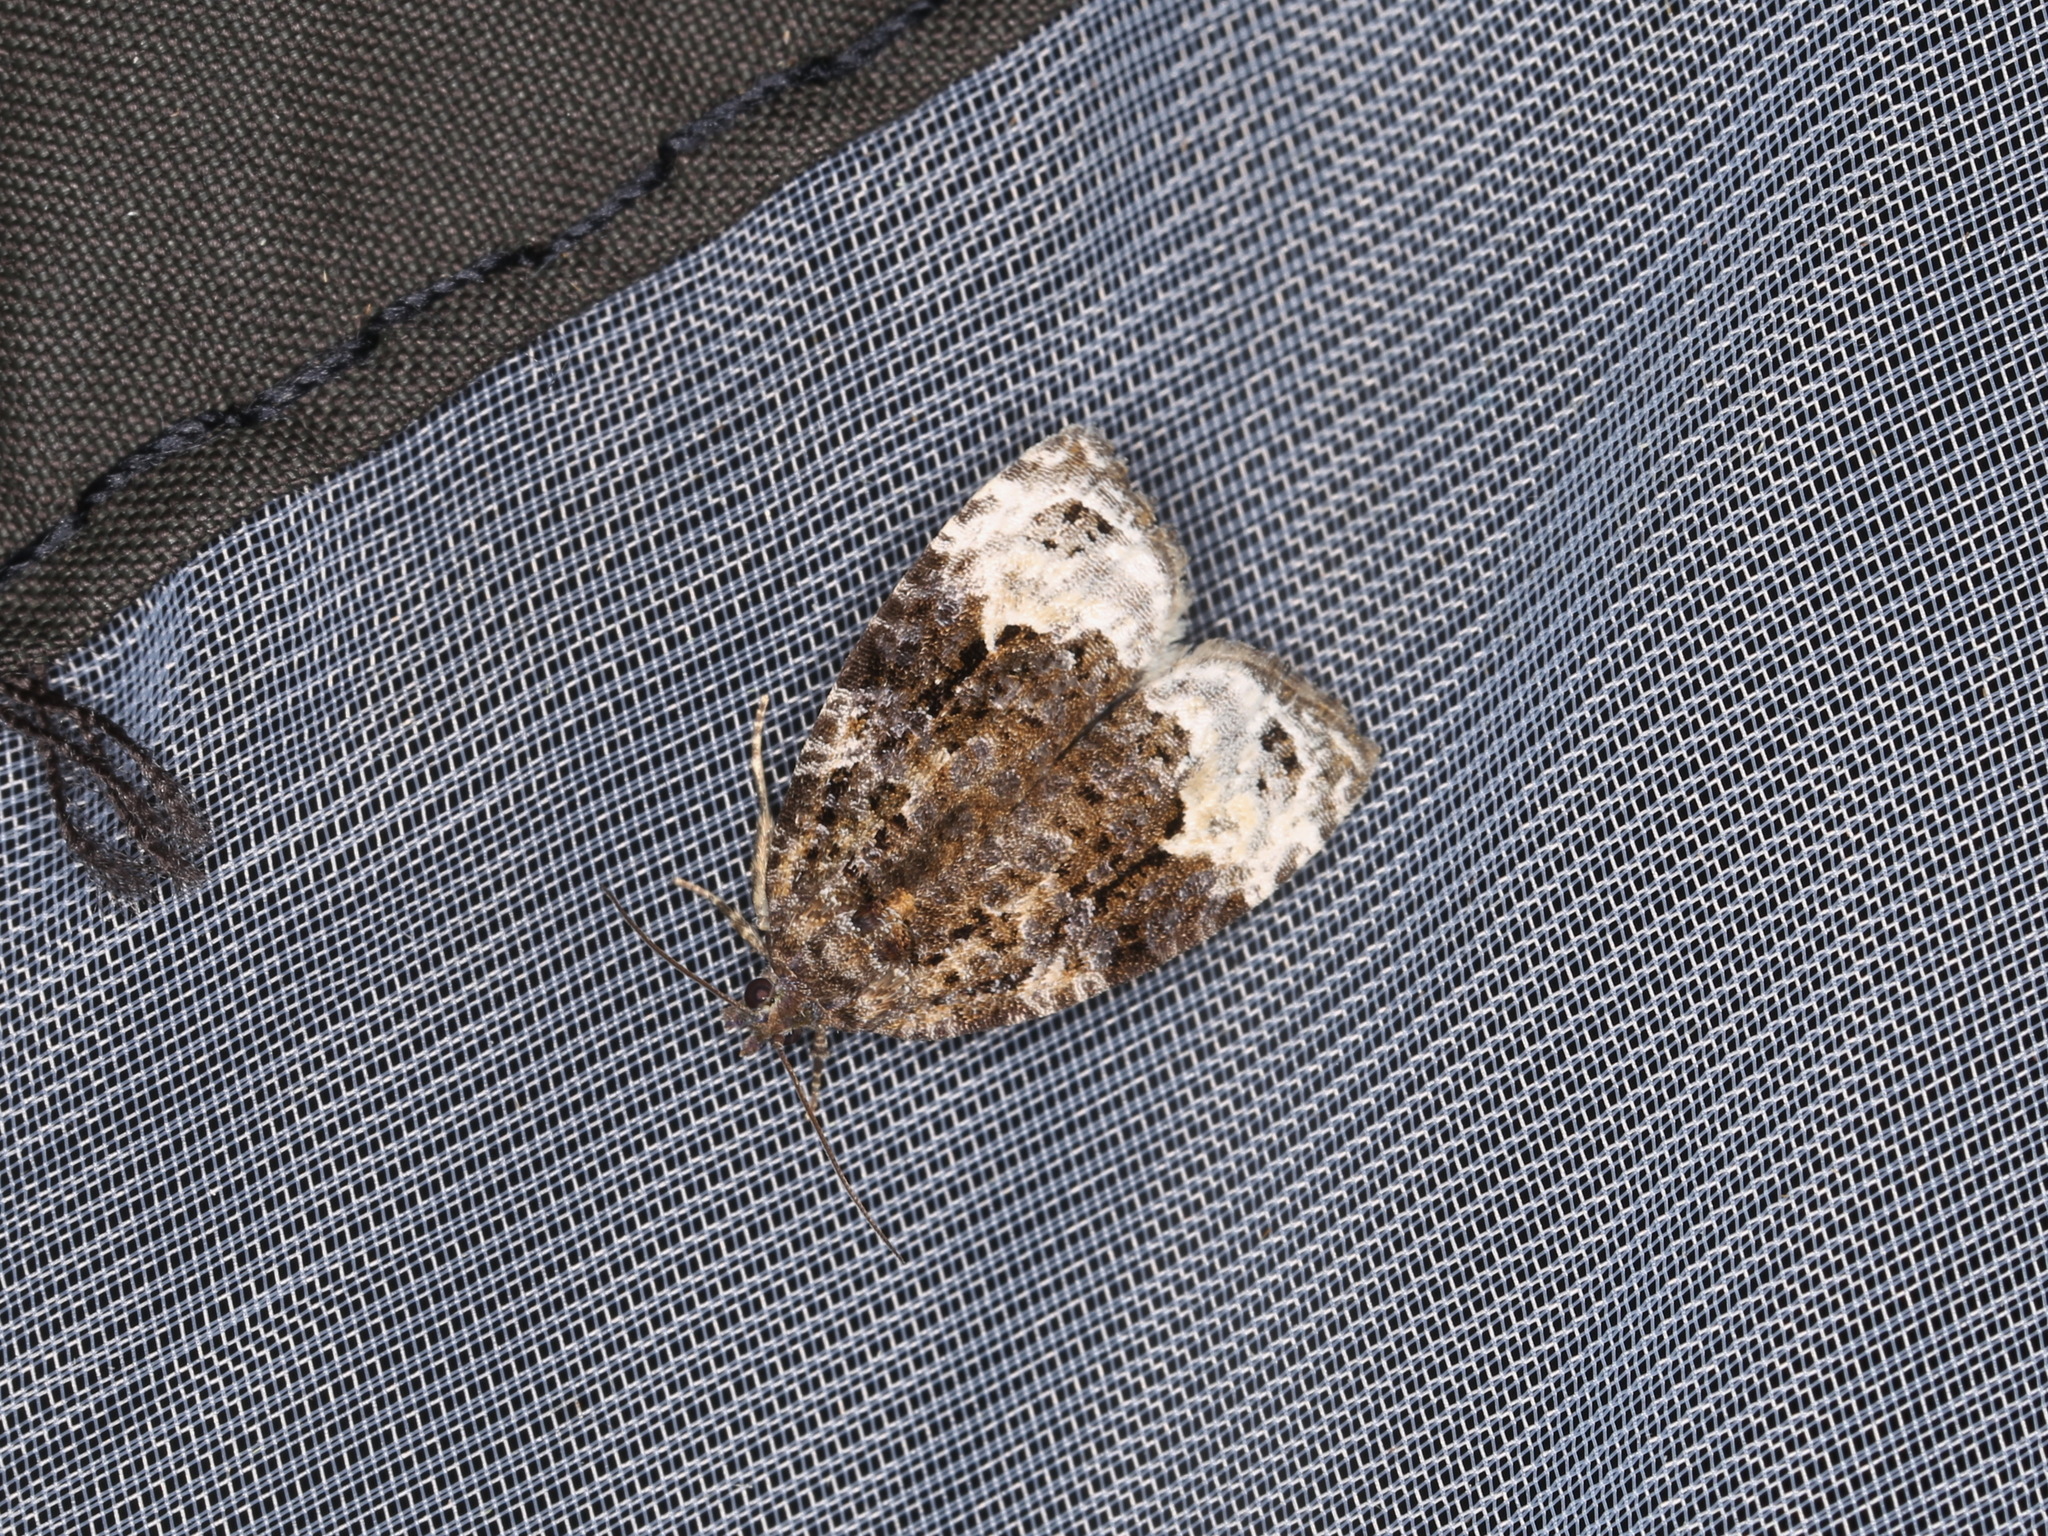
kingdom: Animalia
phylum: Arthropoda
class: Insecta
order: Lepidoptera
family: Tortricidae
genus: Apotomis
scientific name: Apotomis capreana
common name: Sallow marble
